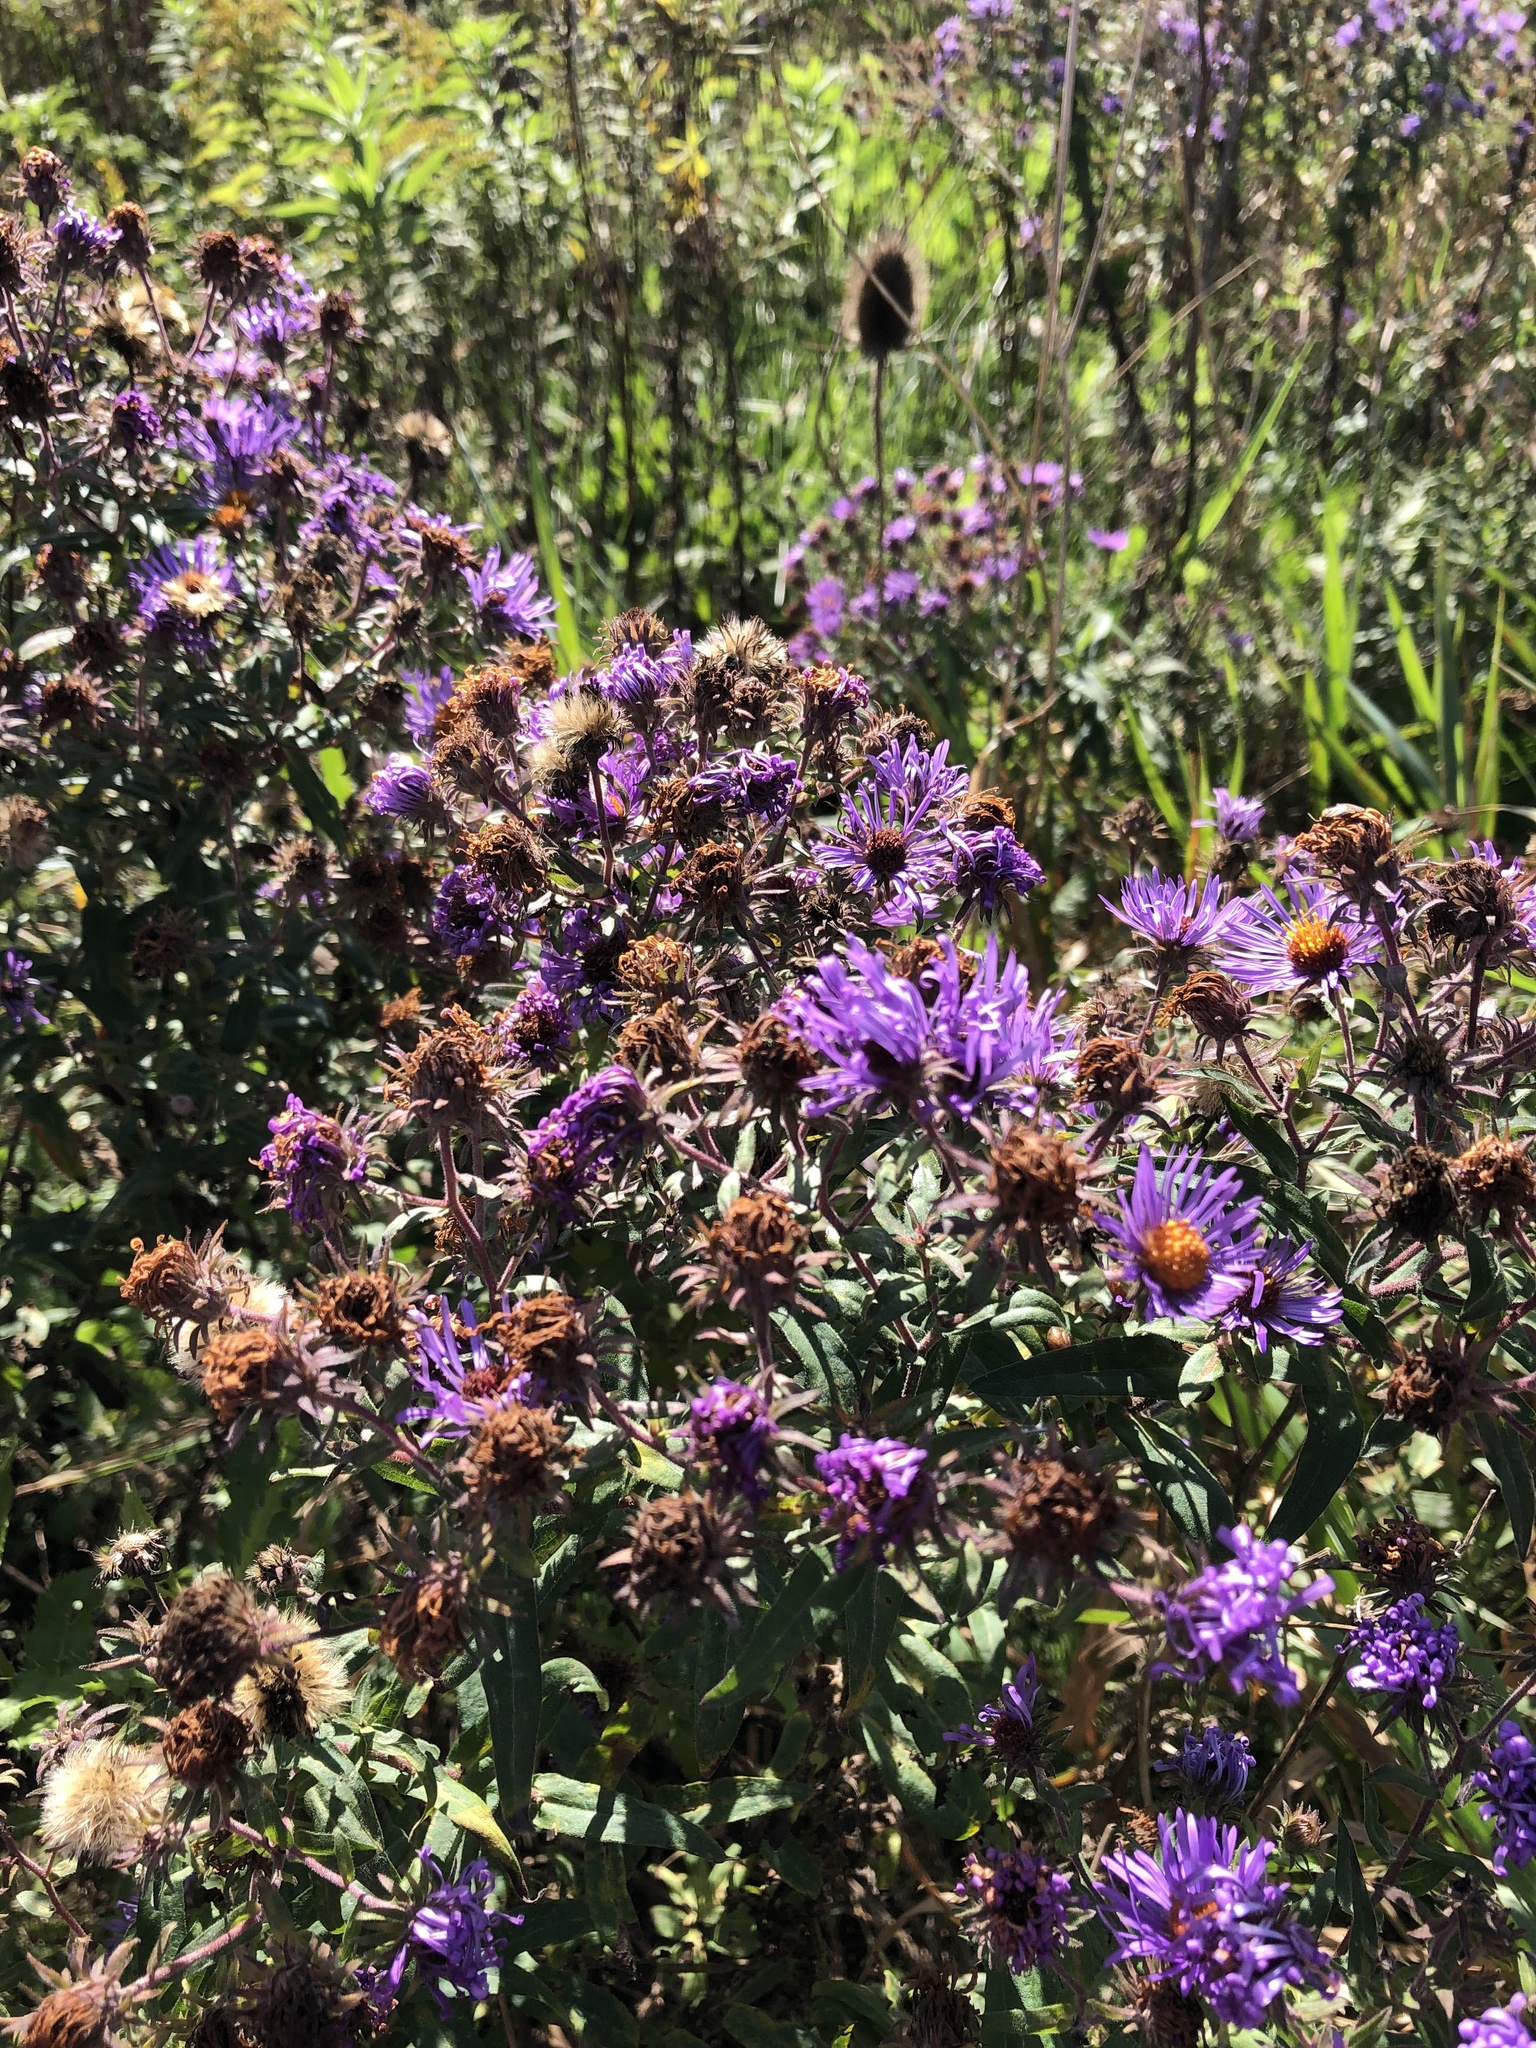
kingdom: Plantae
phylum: Tracheophyta
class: Magnoliopsida
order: Asterales
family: Asteraceae
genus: Symphyotrichum
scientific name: Symphyotrichum novae-angliae
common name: Michaelmas daisy
